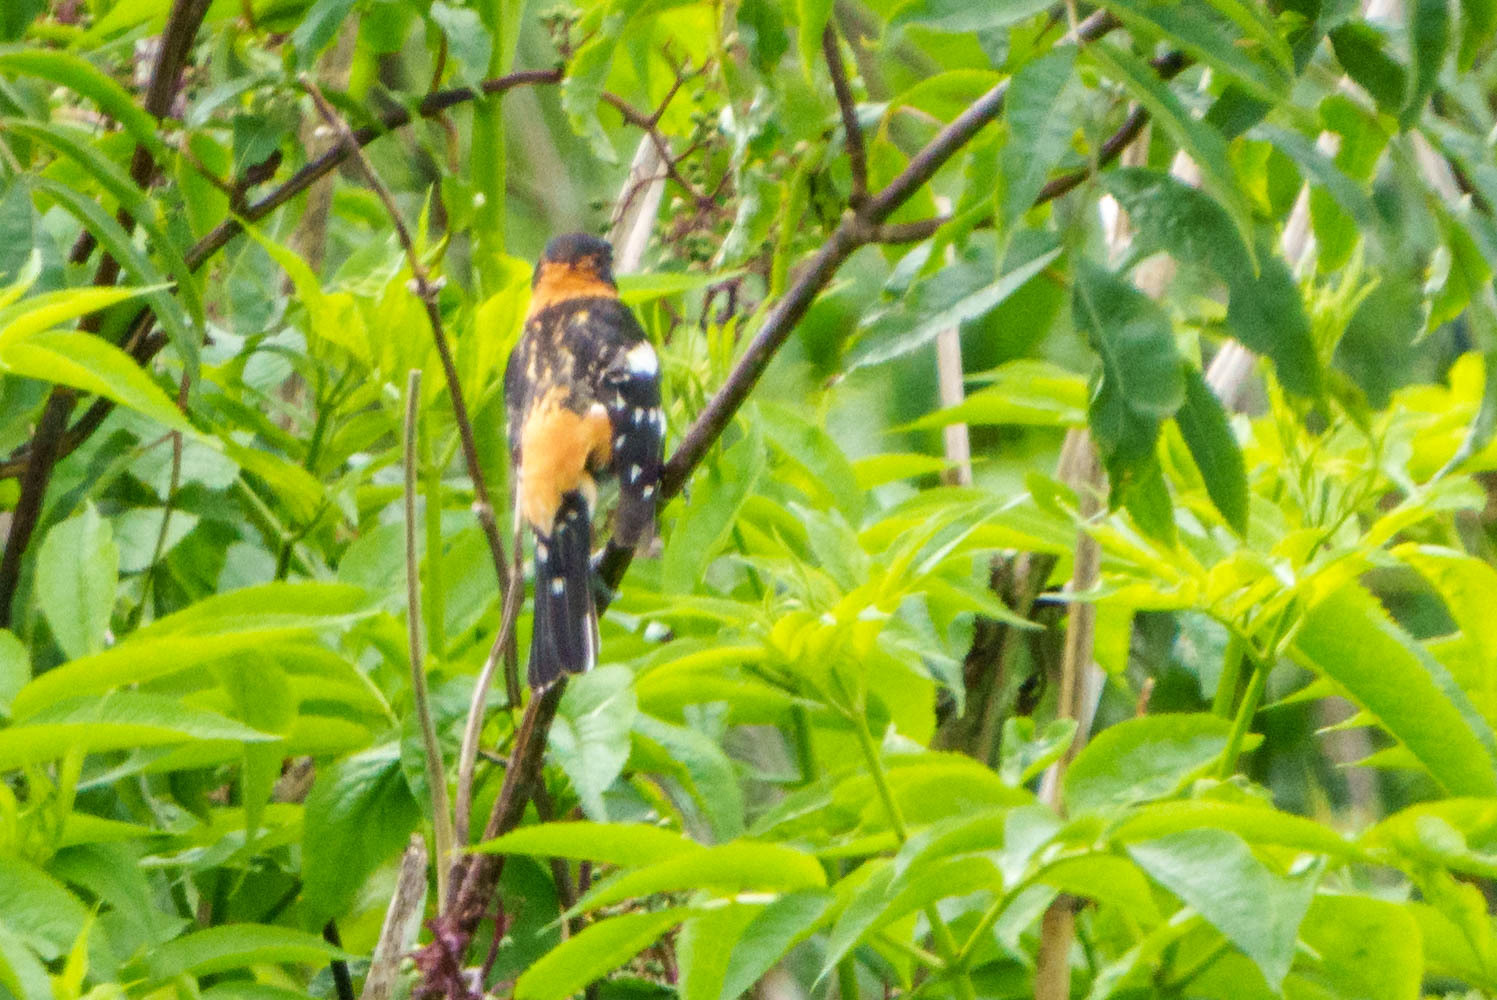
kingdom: Animalia
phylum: Chordata
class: Aves
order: Passeriformes
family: Cardinalidae
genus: Pheucticus
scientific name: Pheucticus melanocephalus
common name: Black-headed grosbeak
